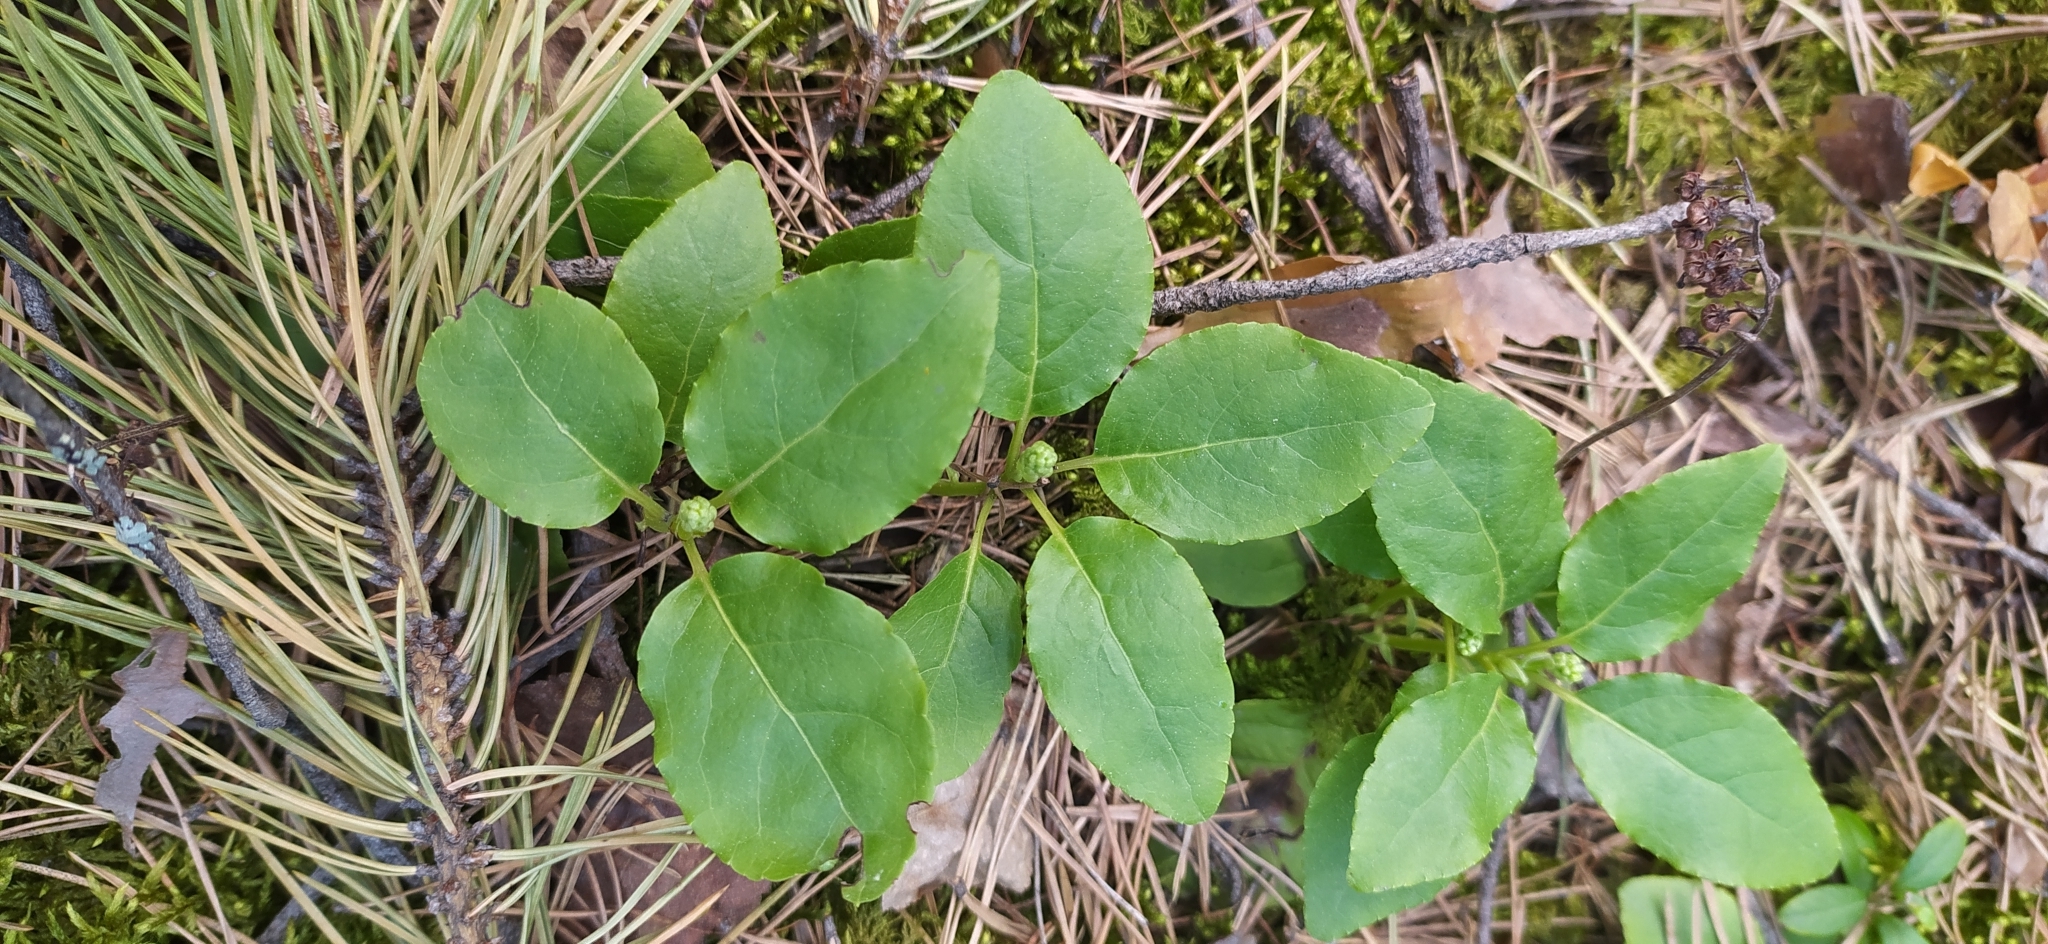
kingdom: Plantae
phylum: Tracheophyta
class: Magnoliopsida
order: Ericales
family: Ericaceae
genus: Orthilia
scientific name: Orthilia secunda
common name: One-sided orthilia
